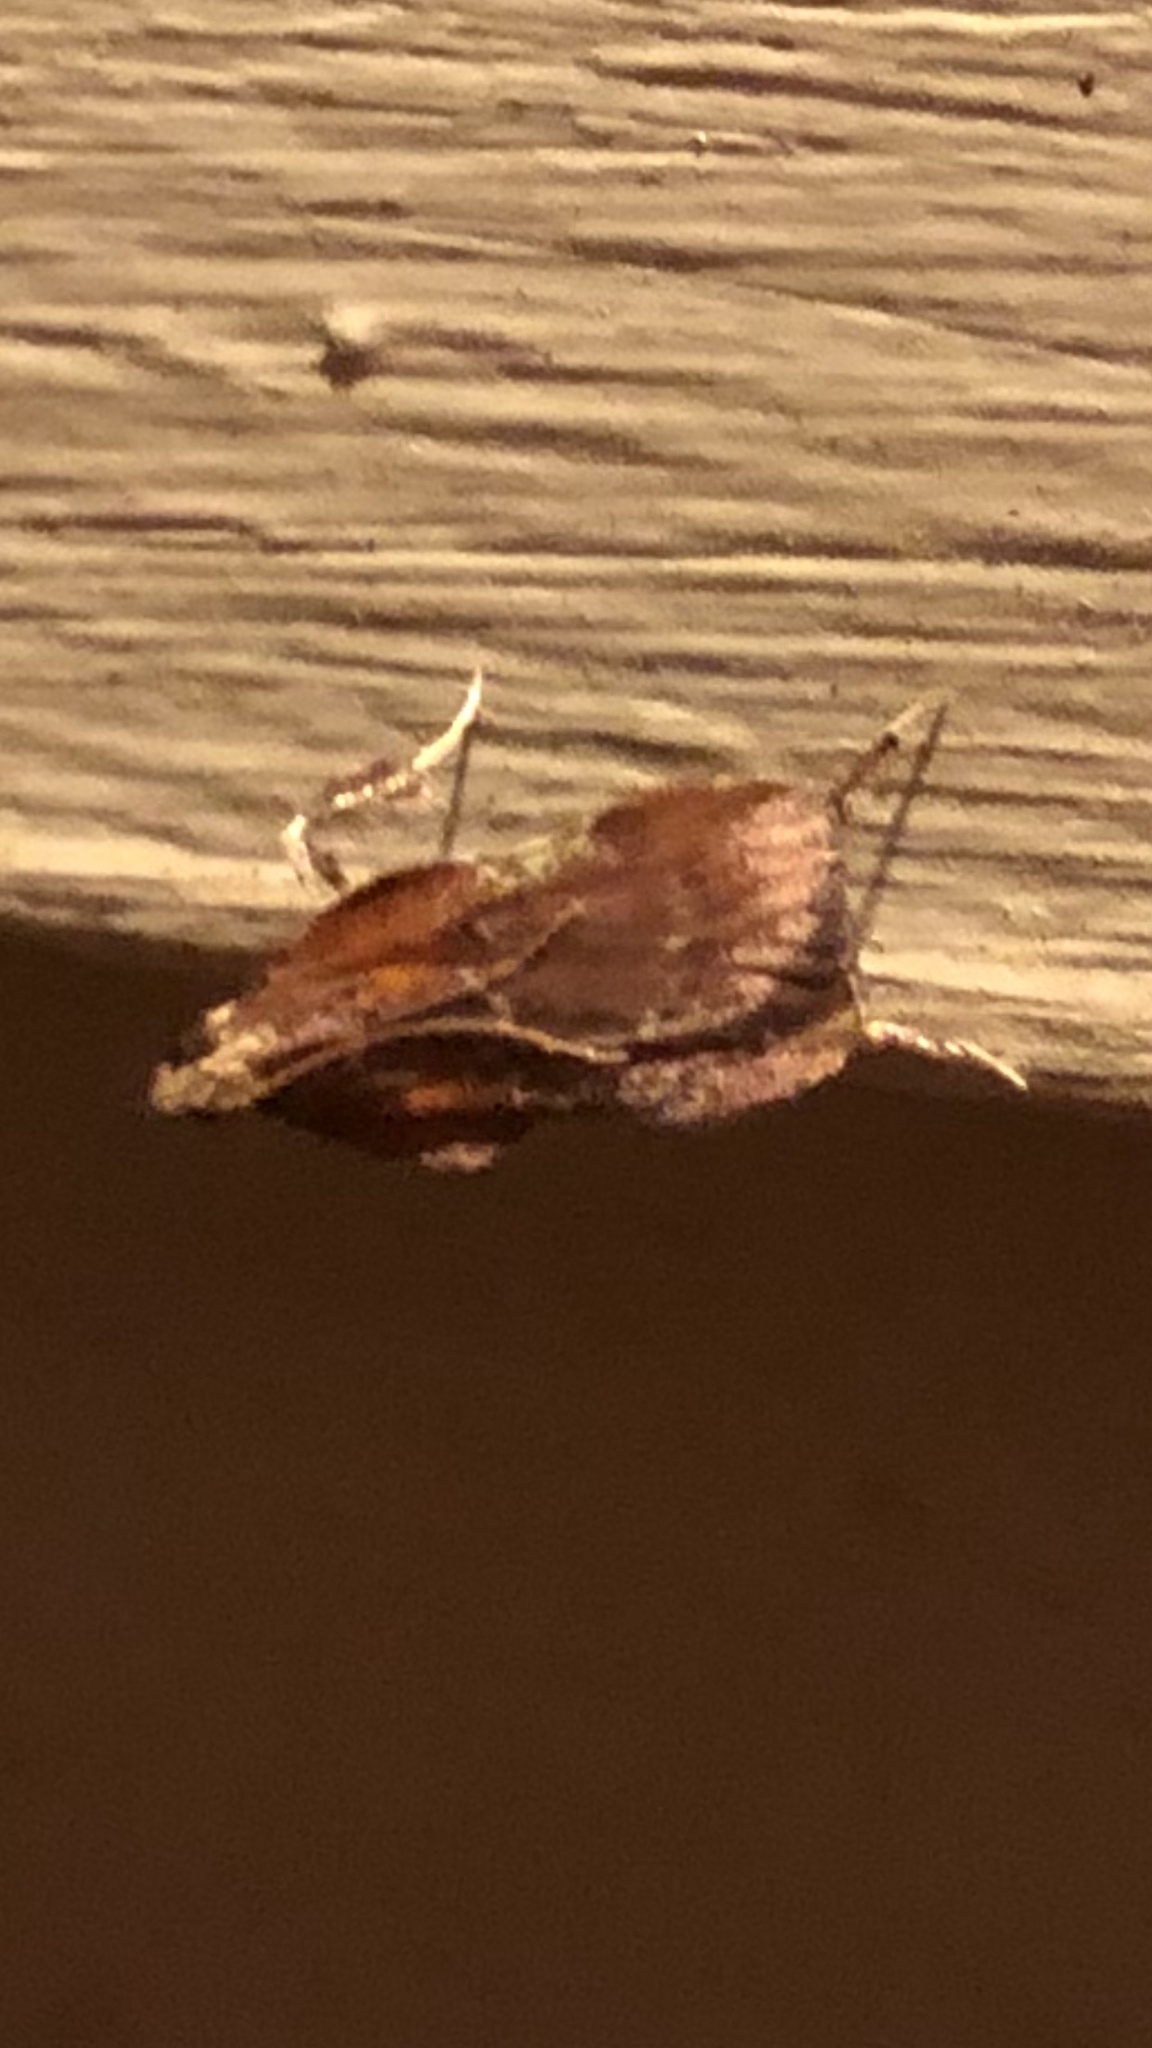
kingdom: Animalia
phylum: Arthropoda
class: Insecta
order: Lepidoptera
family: Pyralidae
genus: Galasa
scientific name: Galasa nigrinodis
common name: Boxwood leaftier moth
